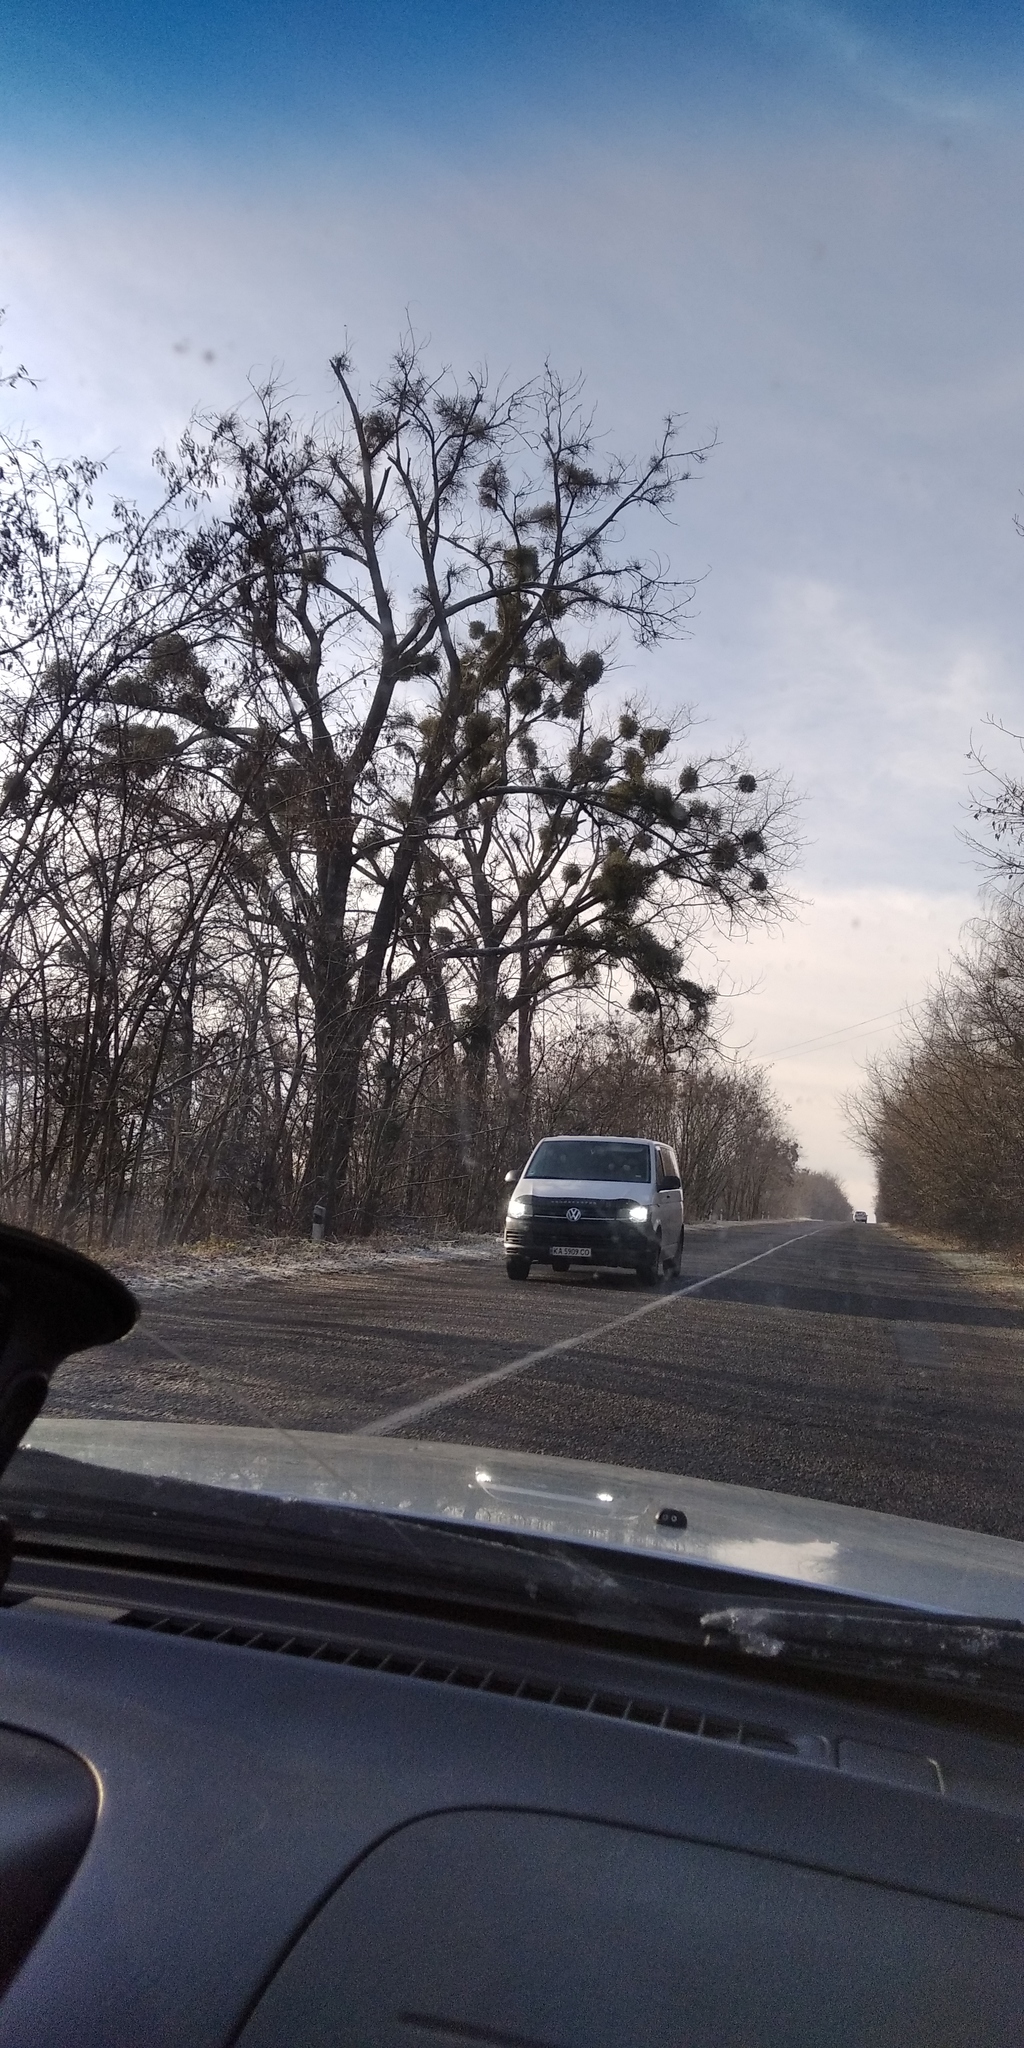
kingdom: Plantae
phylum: Tracheophyta
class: Magnoliopsida
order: Santalales
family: Viscaceae
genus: Viscum
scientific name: Viscum album
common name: Mistletoe
